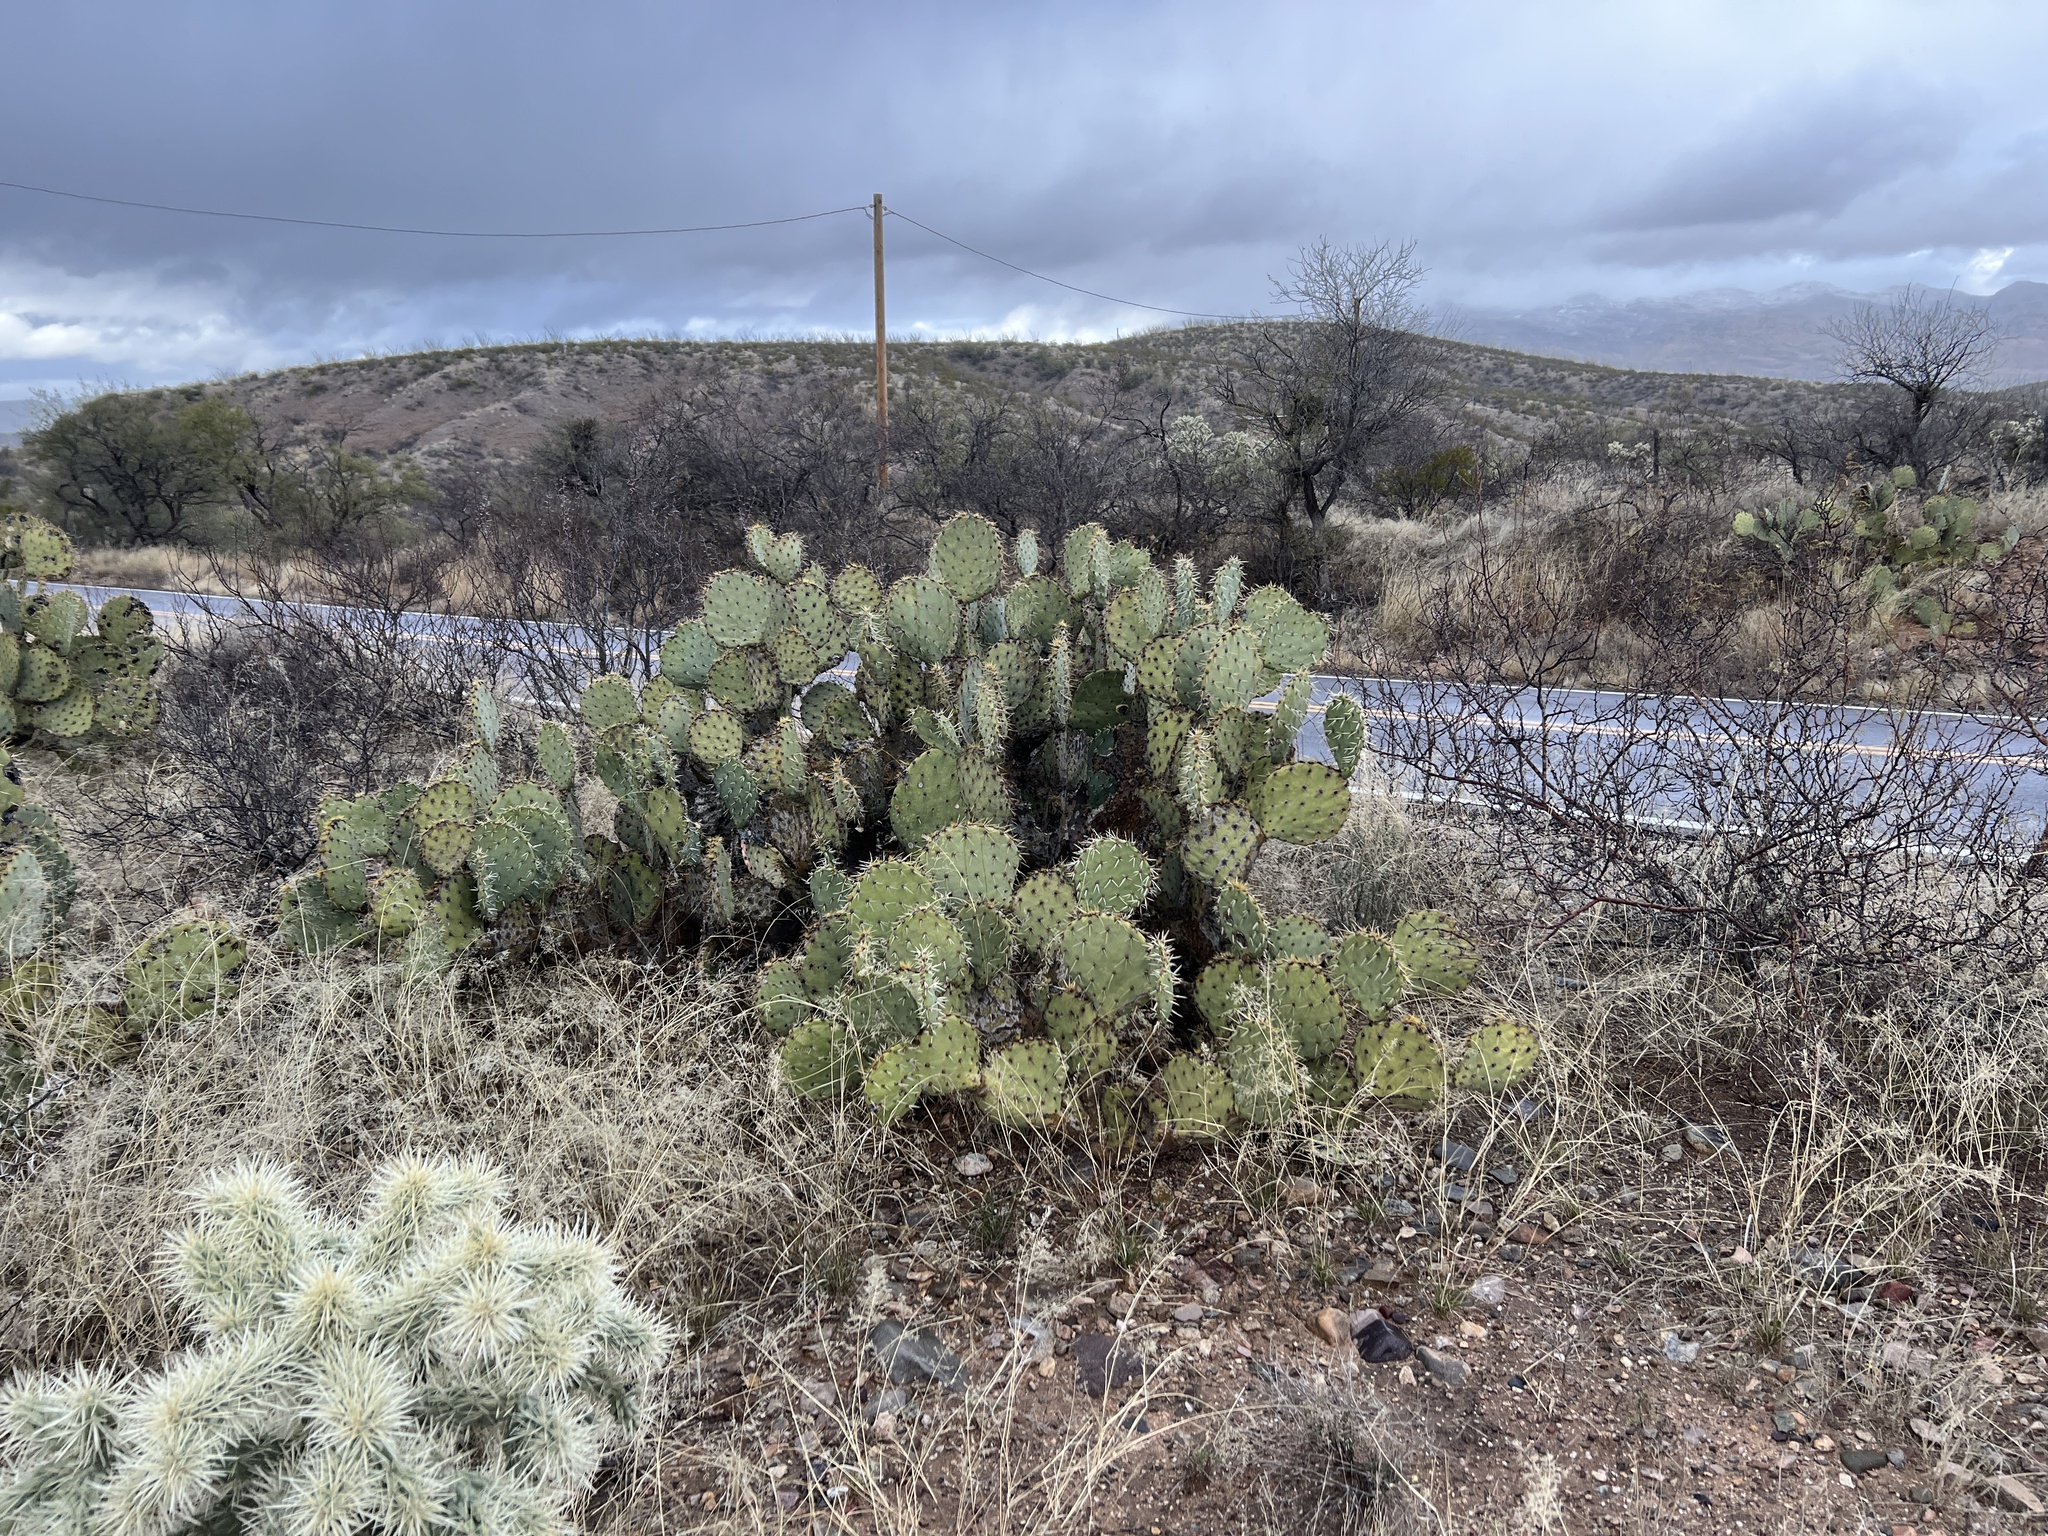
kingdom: Plantae
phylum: Tracheophyta
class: Magnoliopsida
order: Caryophyllales
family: Cactaceae
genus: Opuntia
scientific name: Opuntia engelmannii
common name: Cactus-apple
